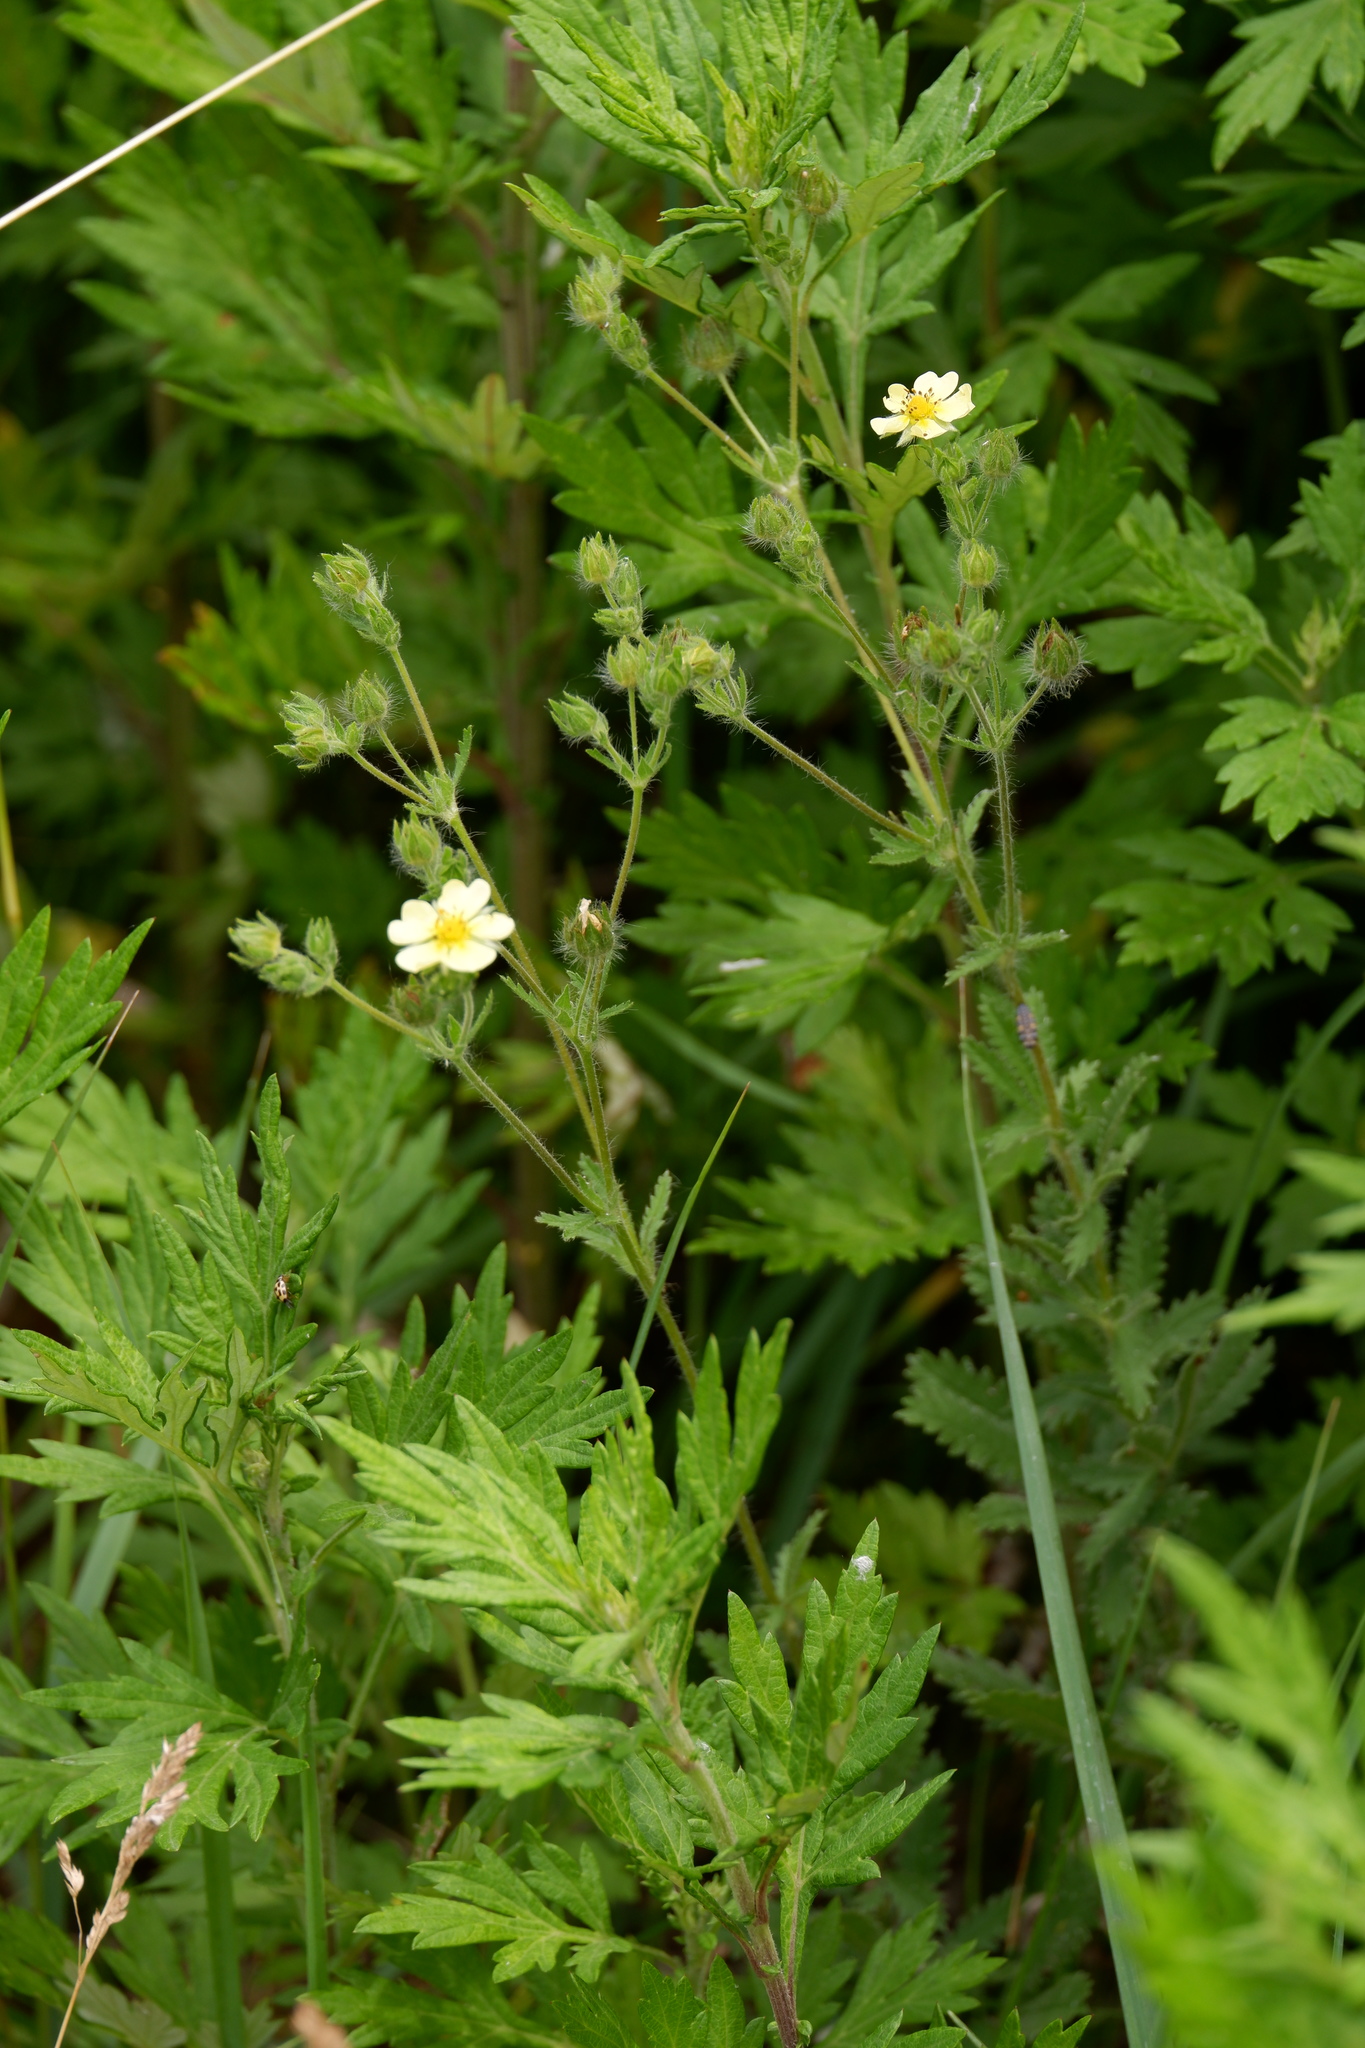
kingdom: Plantae
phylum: Tracheophyta
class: Magnoliopsida
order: Rosales
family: Rosaceae
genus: Potentilla
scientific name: Potentilla recta
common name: Sulphur cinquefoil
